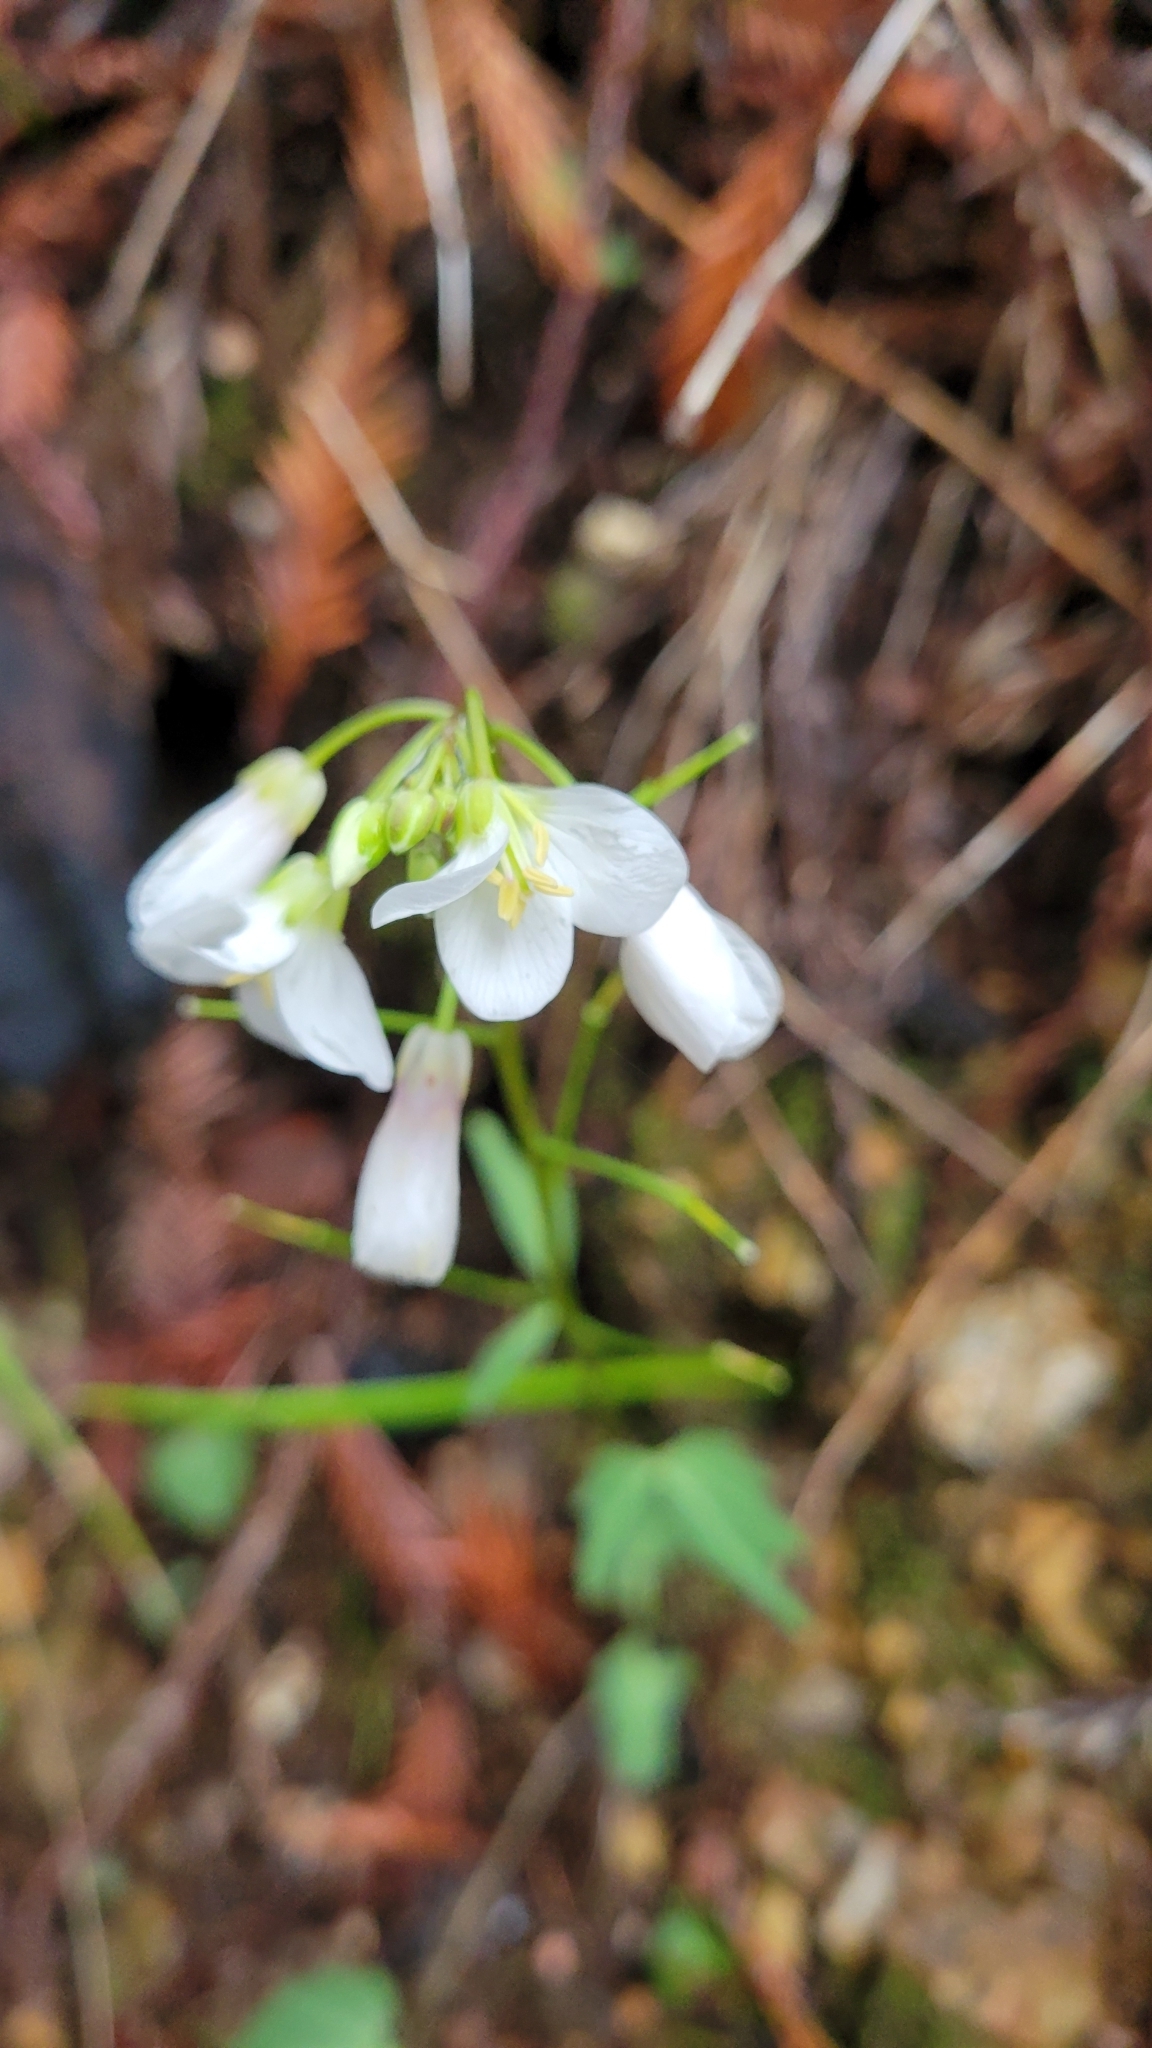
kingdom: Plantae
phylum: Tracheophyta
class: Magnoliopsida
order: Brassicales
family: Brassicaceae
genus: Cardamine
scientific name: Cardamine californica
